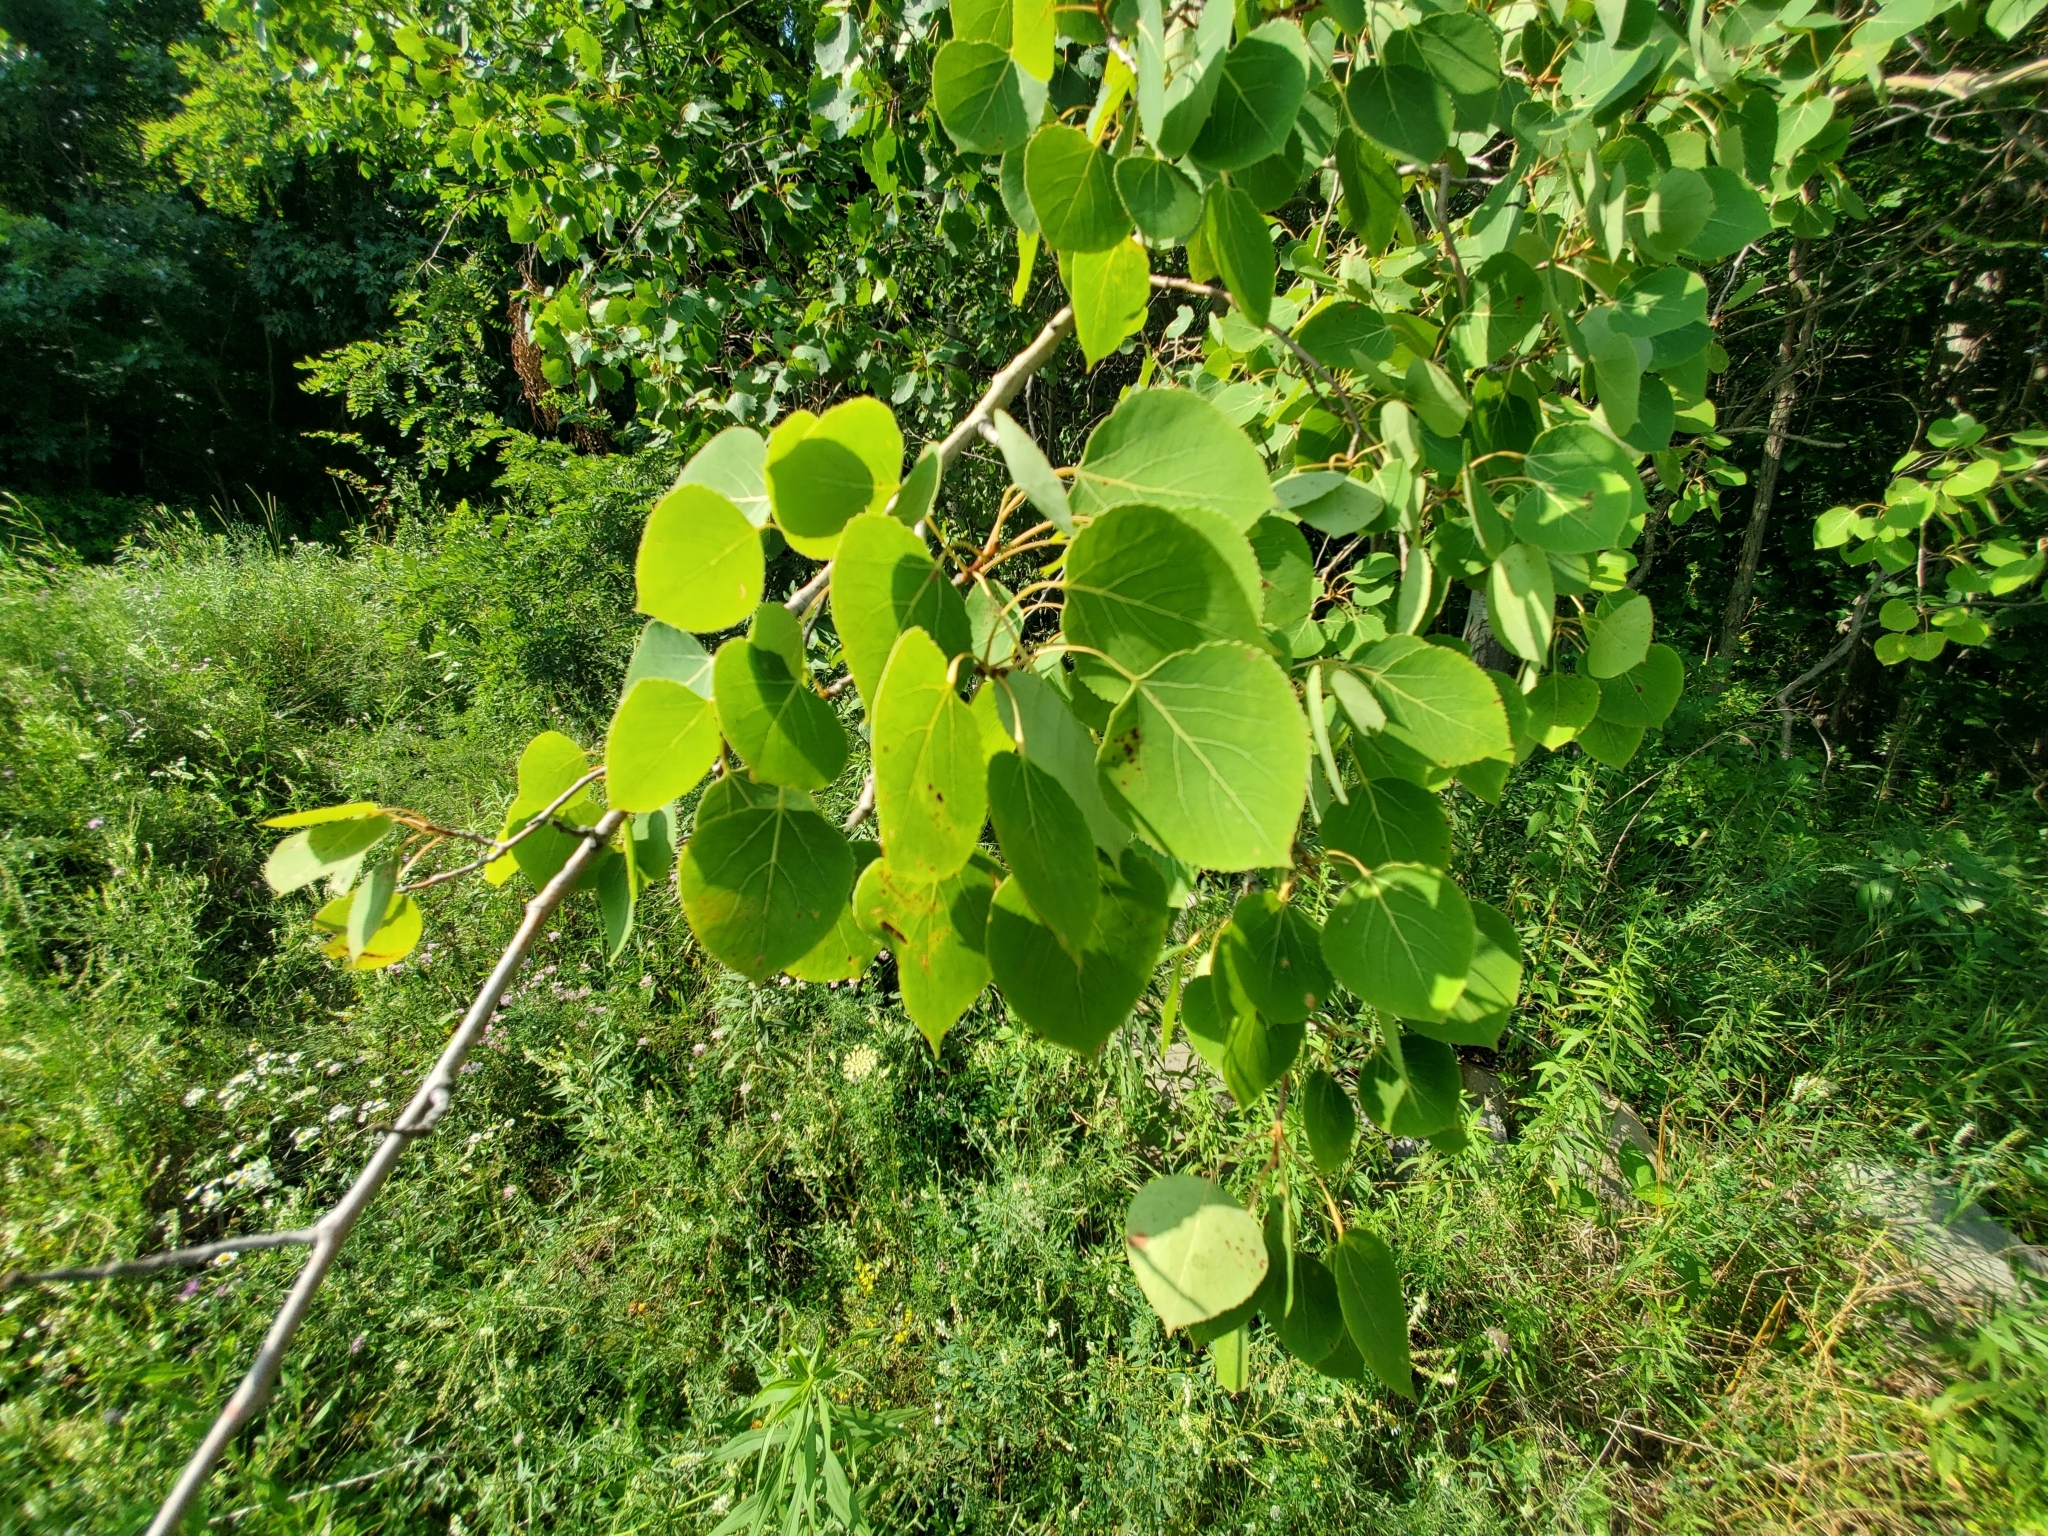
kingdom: Plantae
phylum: Tracheophyta
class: Magnoliopsida
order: Malpighiales
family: Salicaceae
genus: Populus
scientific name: Populus tremuloides
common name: Quaking aspen
